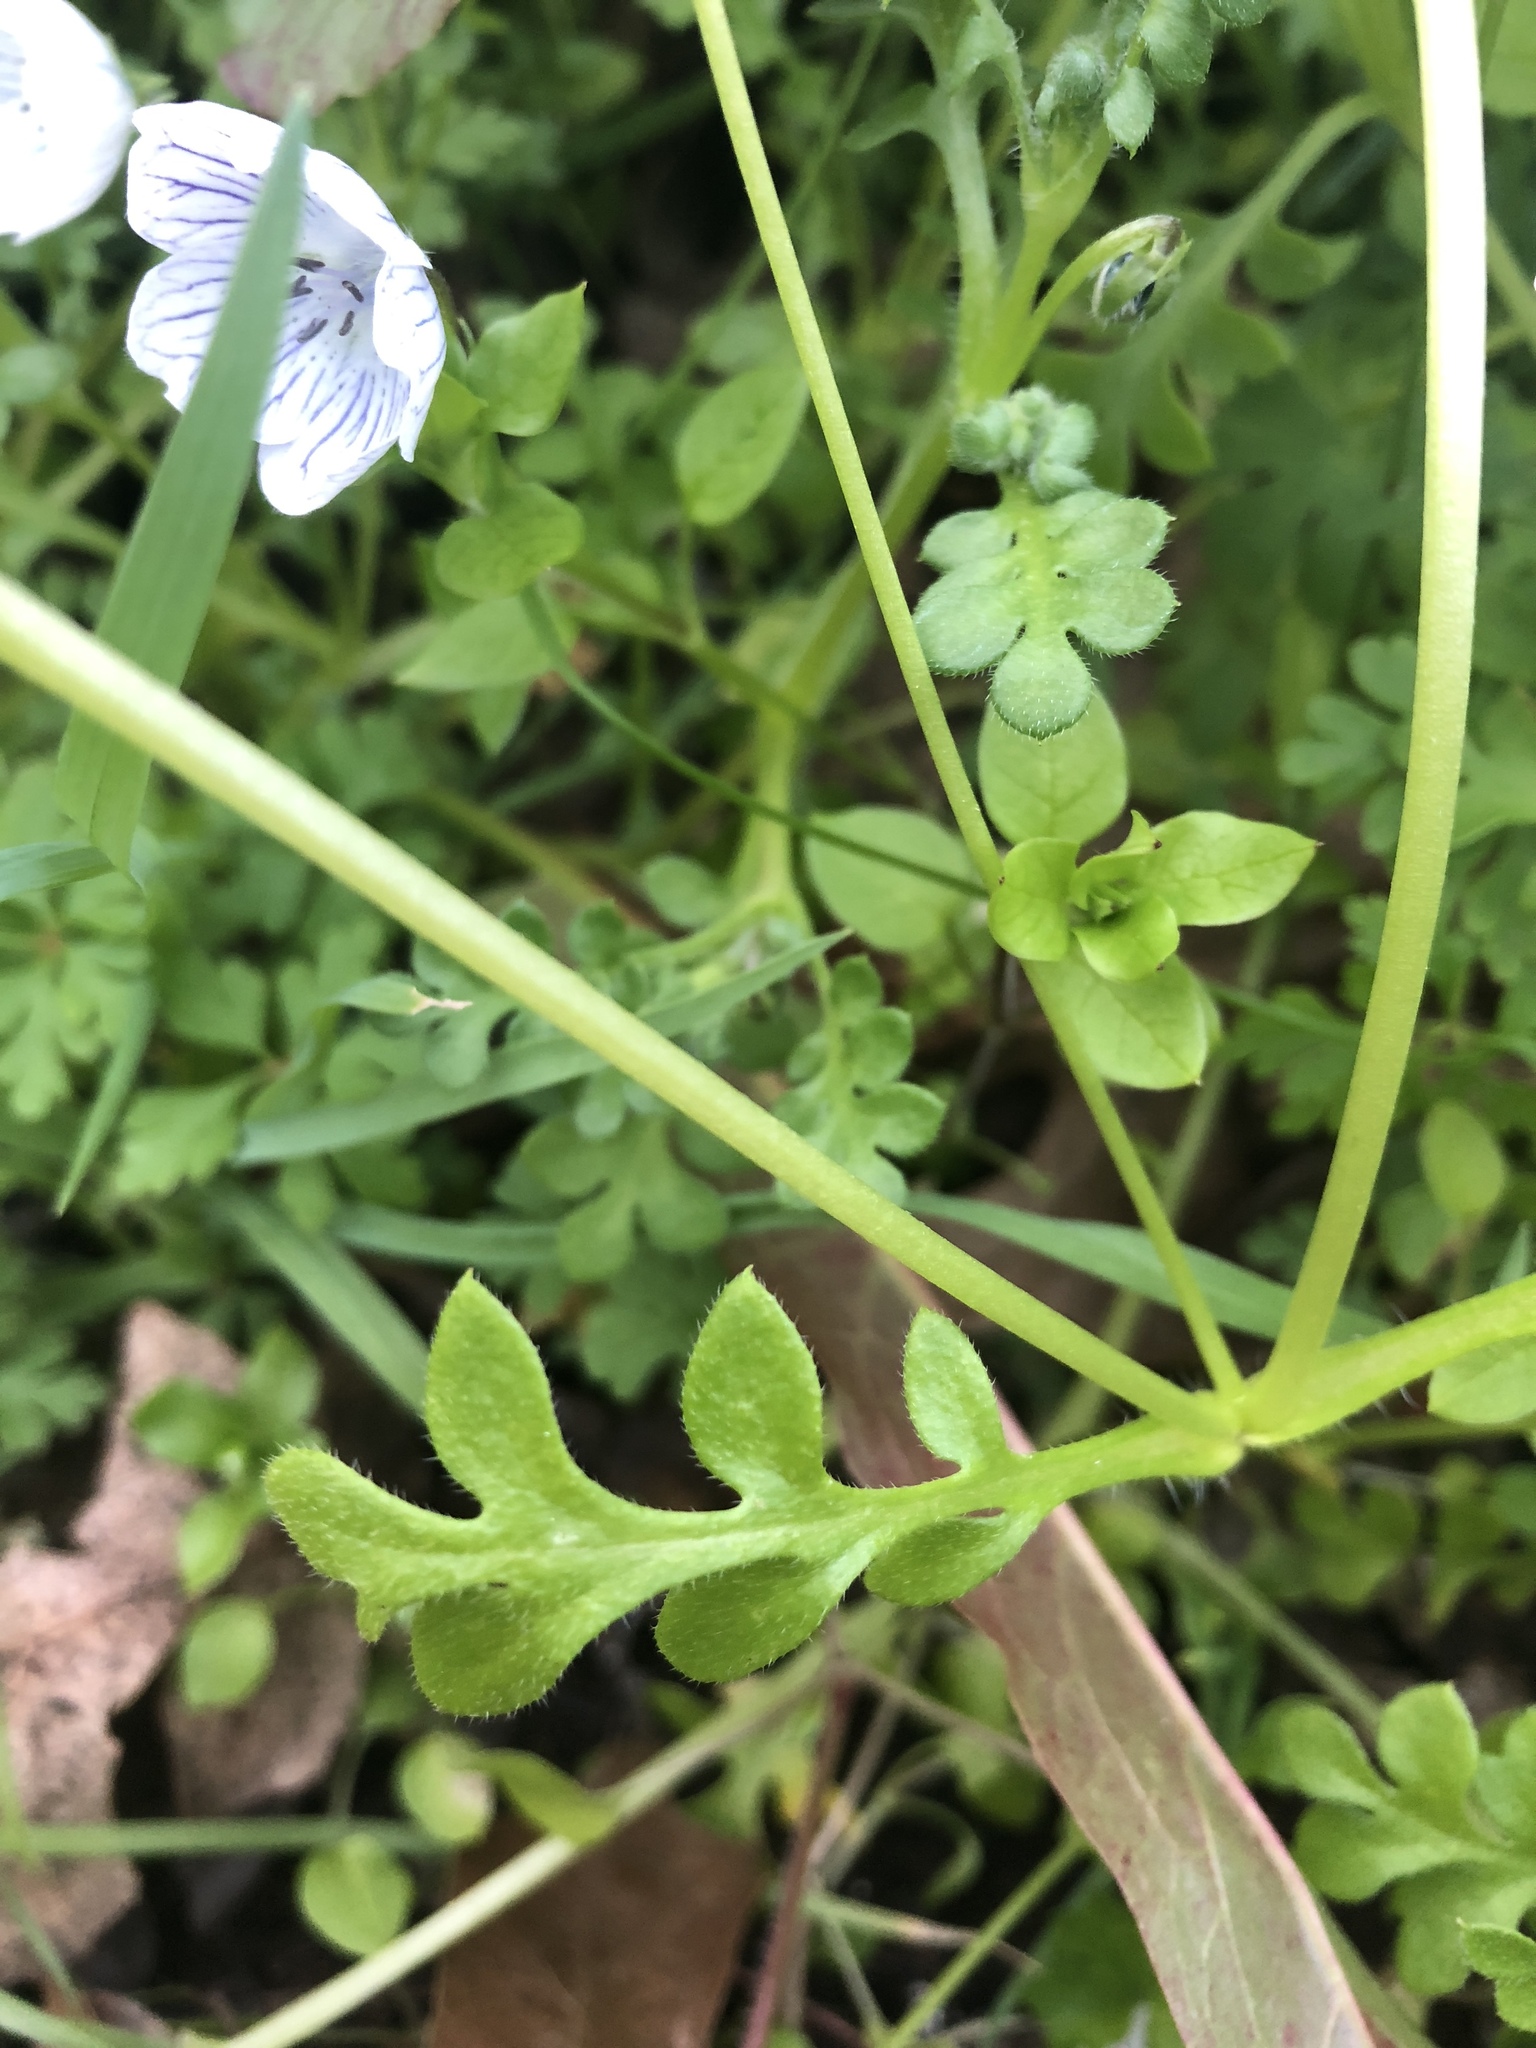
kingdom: Plantae
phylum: Tracheophyta
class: Magnoliopsida
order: Boraginales
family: Hydrophyllaceae
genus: Nemophila
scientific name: Nemophila menziesii
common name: Baby's-blue-eyes
